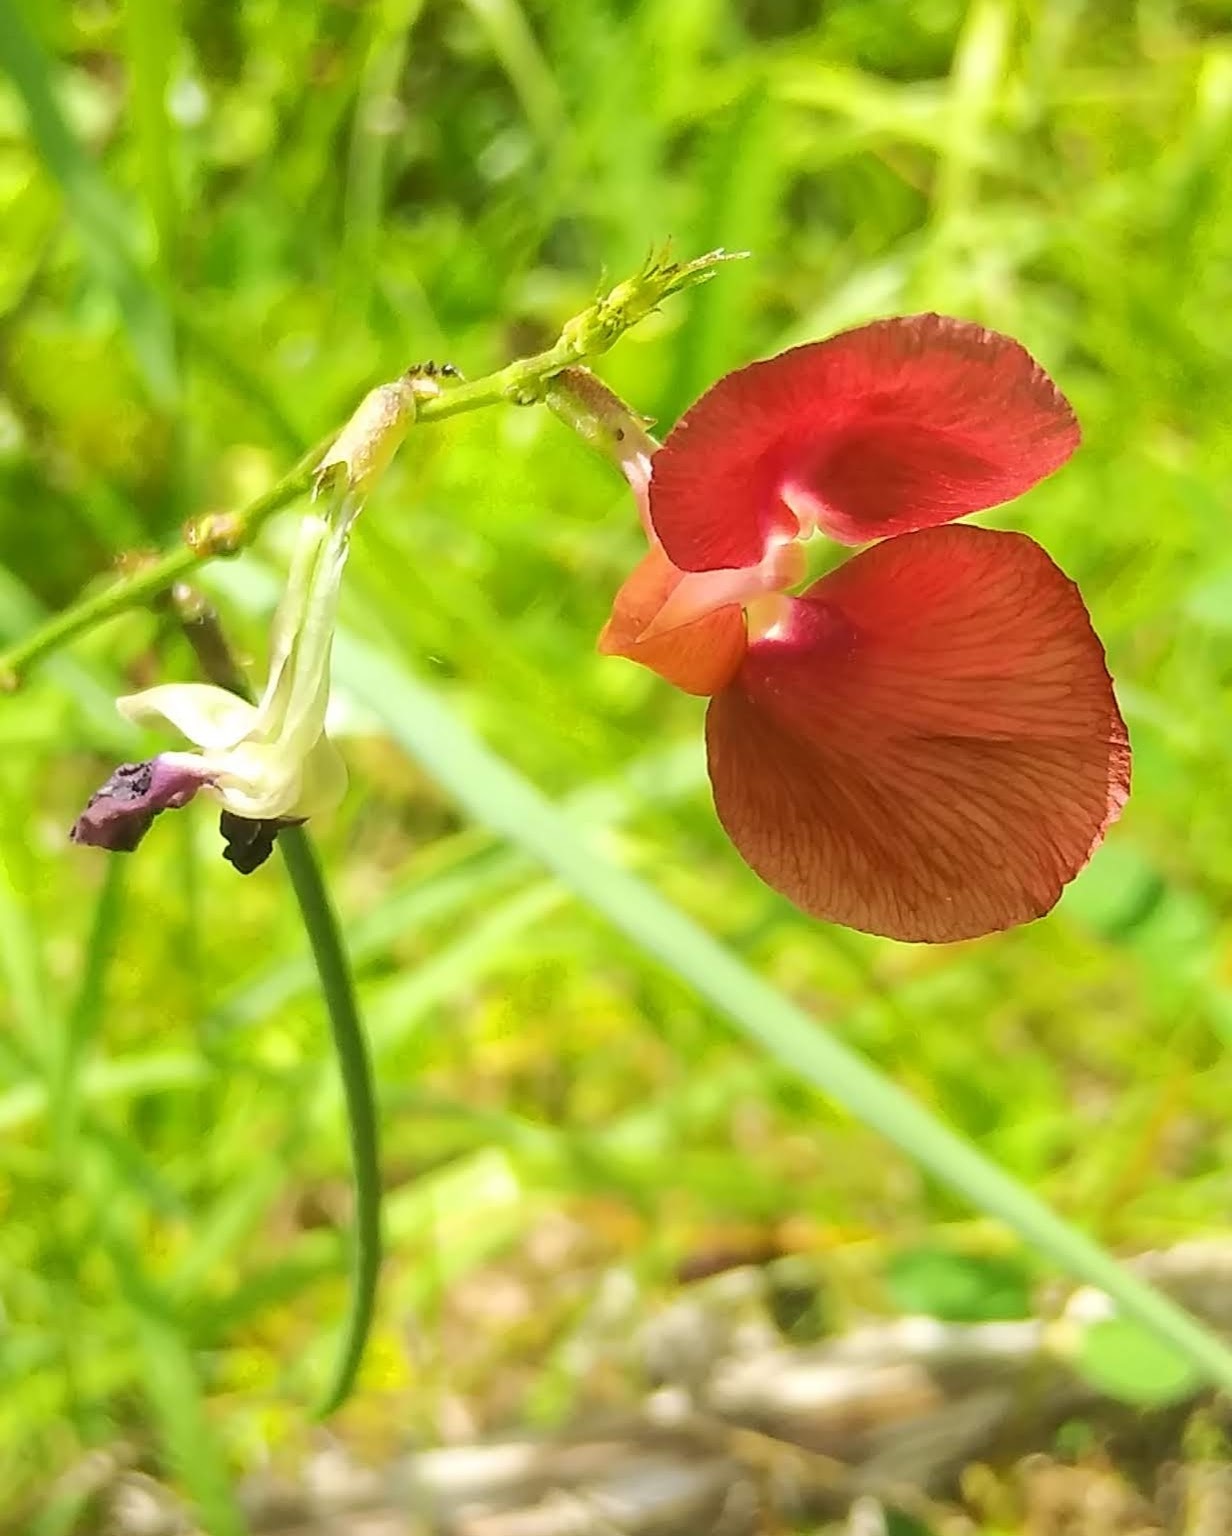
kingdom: Plantae
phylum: Tracheophyta
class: Magnoliopsida
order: Fabales
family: Fabaceae
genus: Macroptilium
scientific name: Macroptilium lathyroides
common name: Wild bushbean
